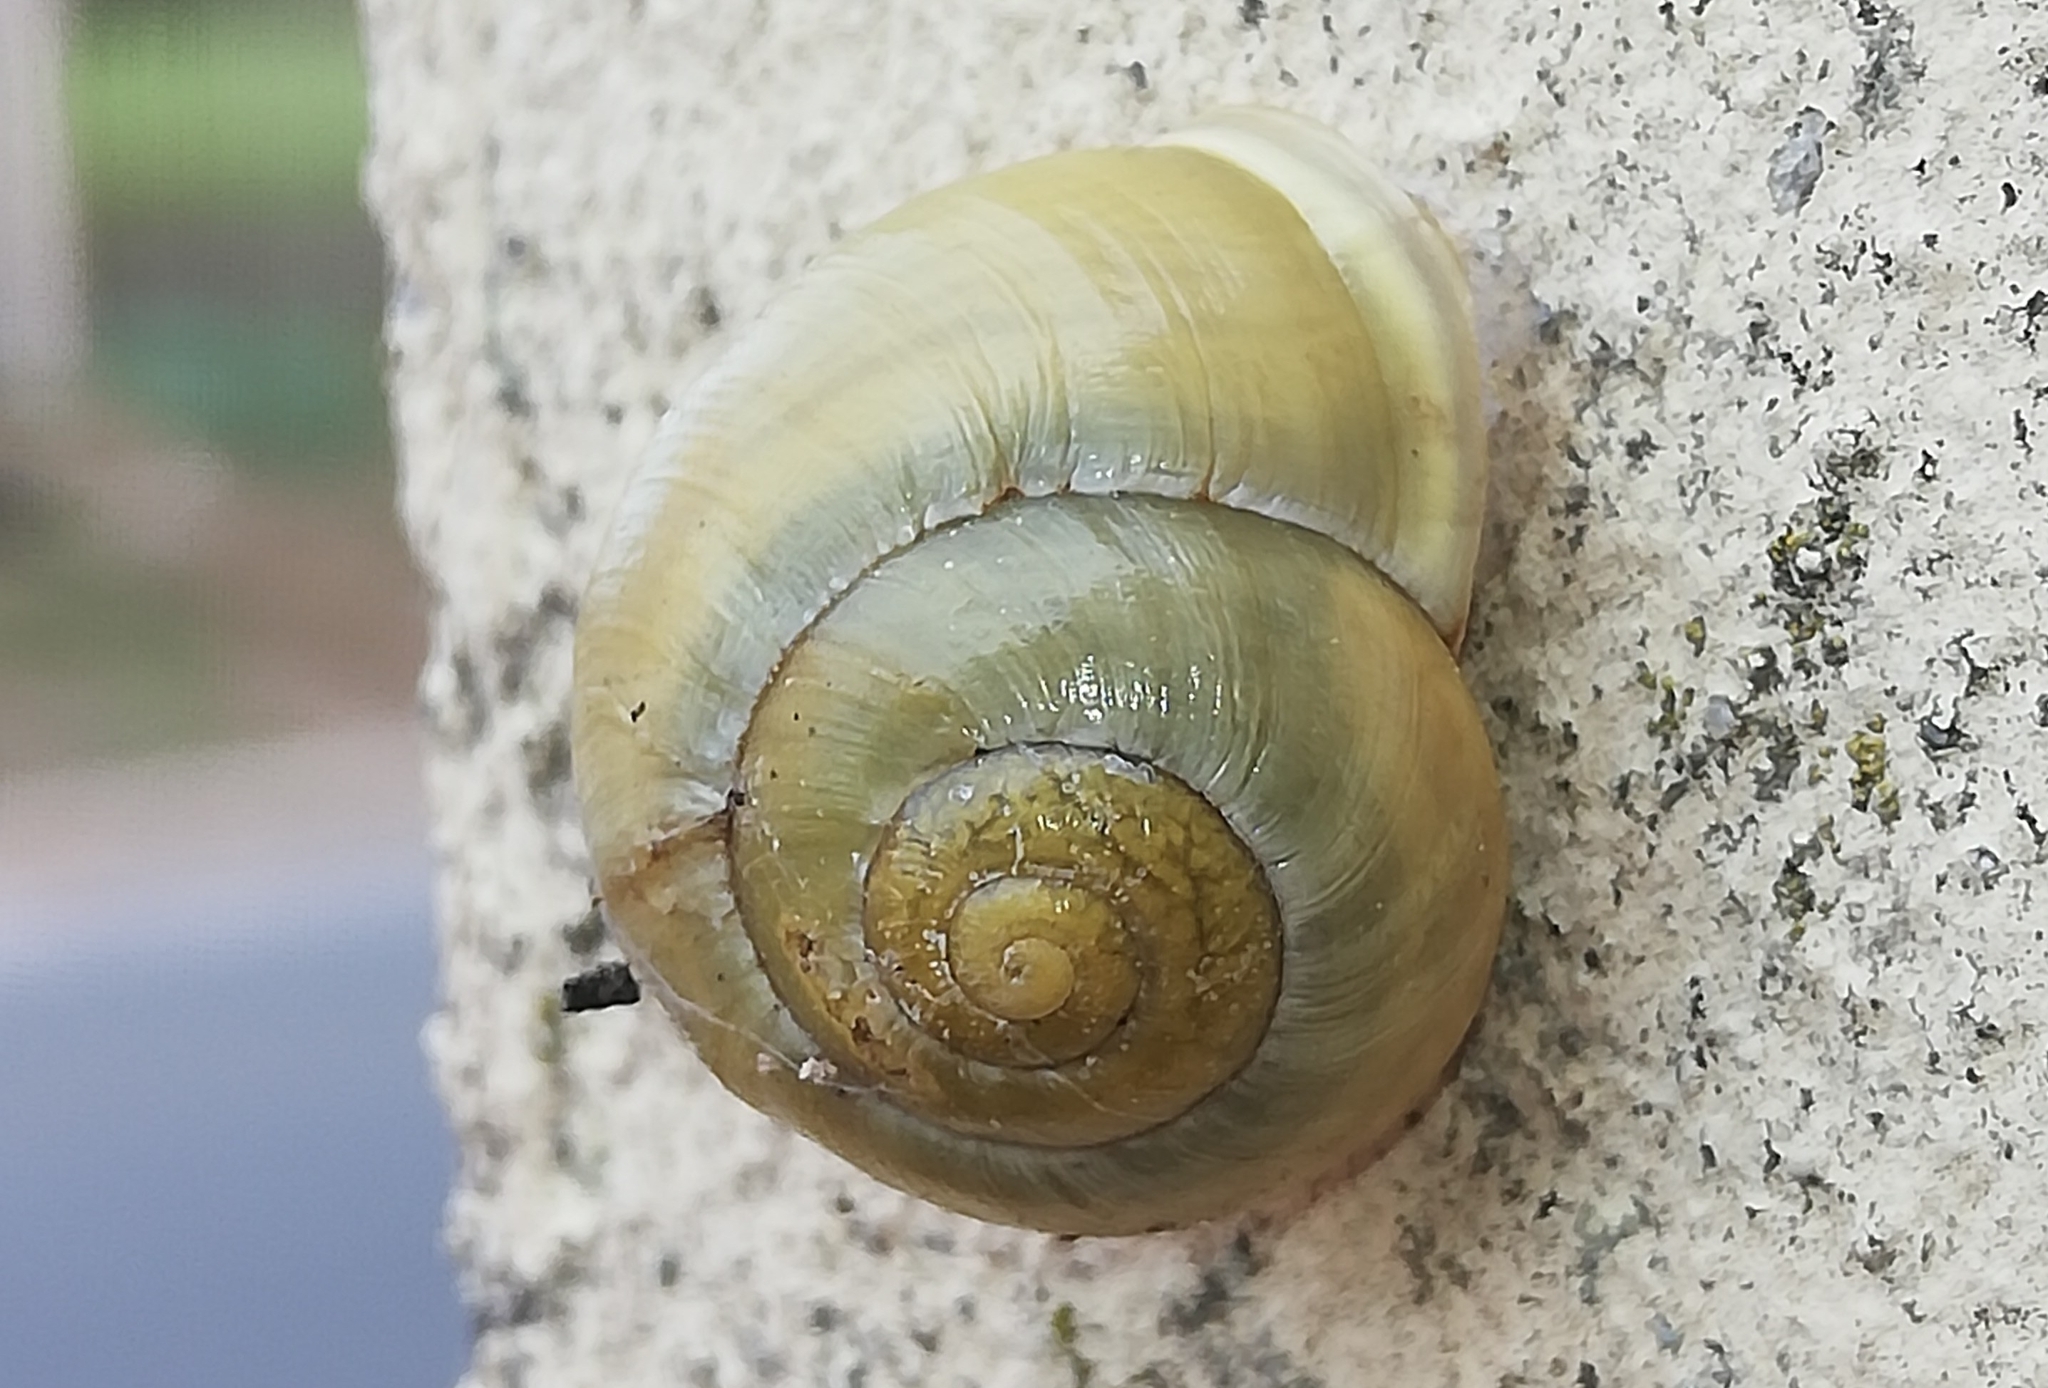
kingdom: Animalia
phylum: Mollusca
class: Gastropoda
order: Stylommatophora
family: Helicidae
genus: Cepaea
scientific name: Cepaea hortensis
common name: White-lip gardensnail
